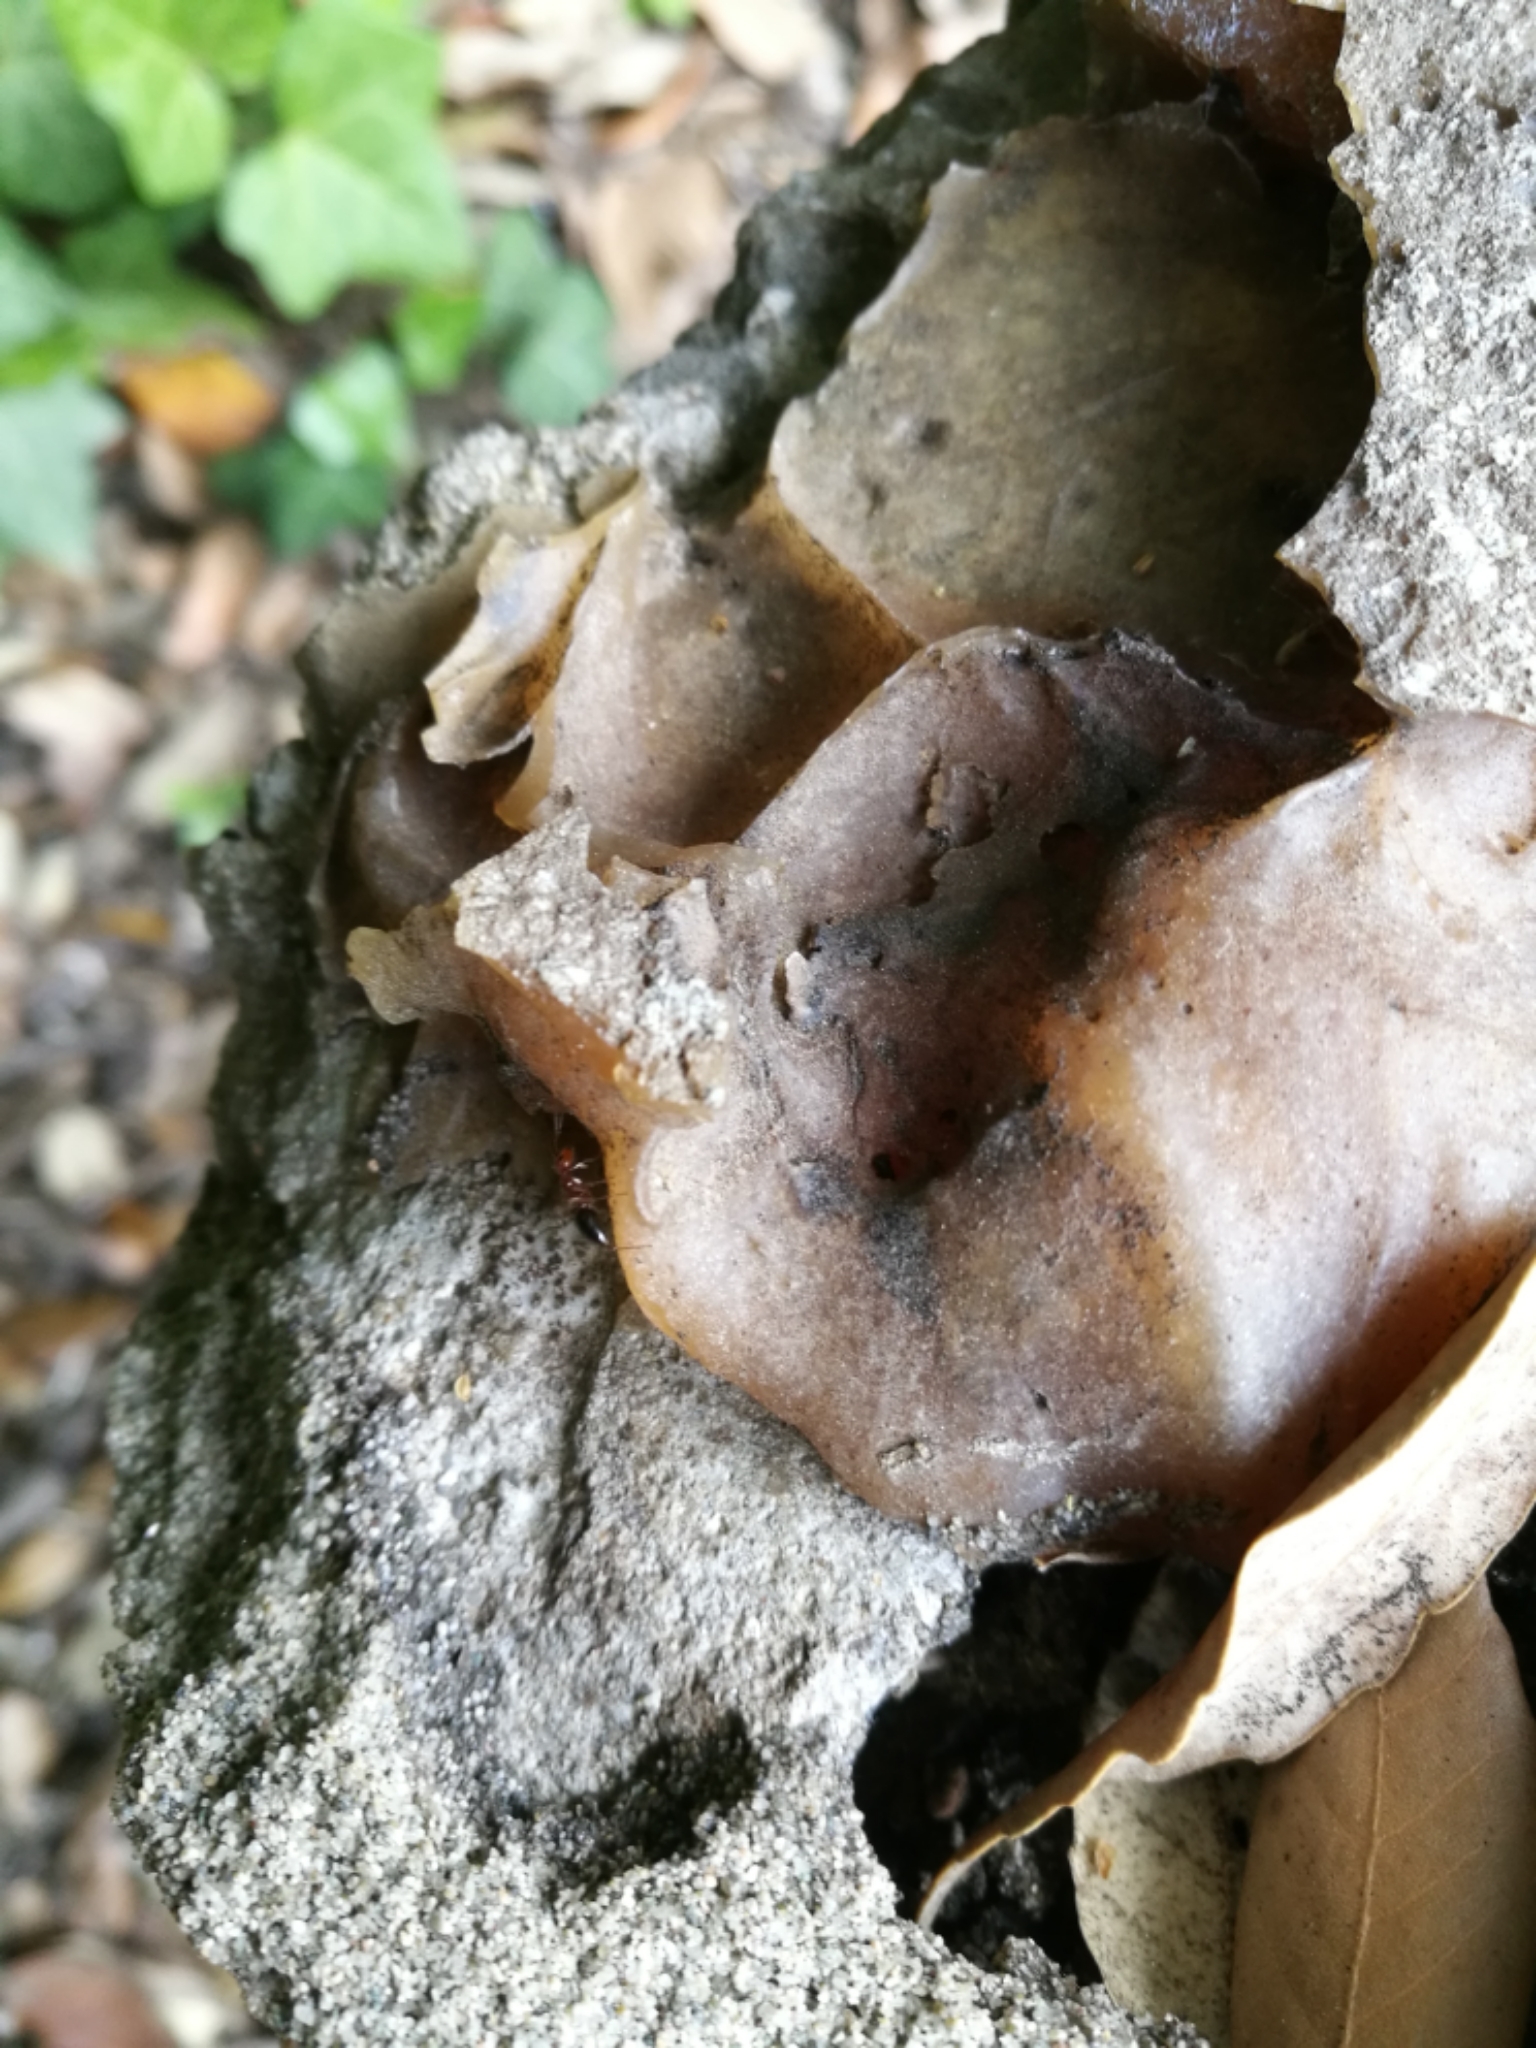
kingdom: Animalia
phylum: Arthropoda
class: Insecta
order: Hymenoptera
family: Formicidae
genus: Camponotus
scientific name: Camponotus lateralis
